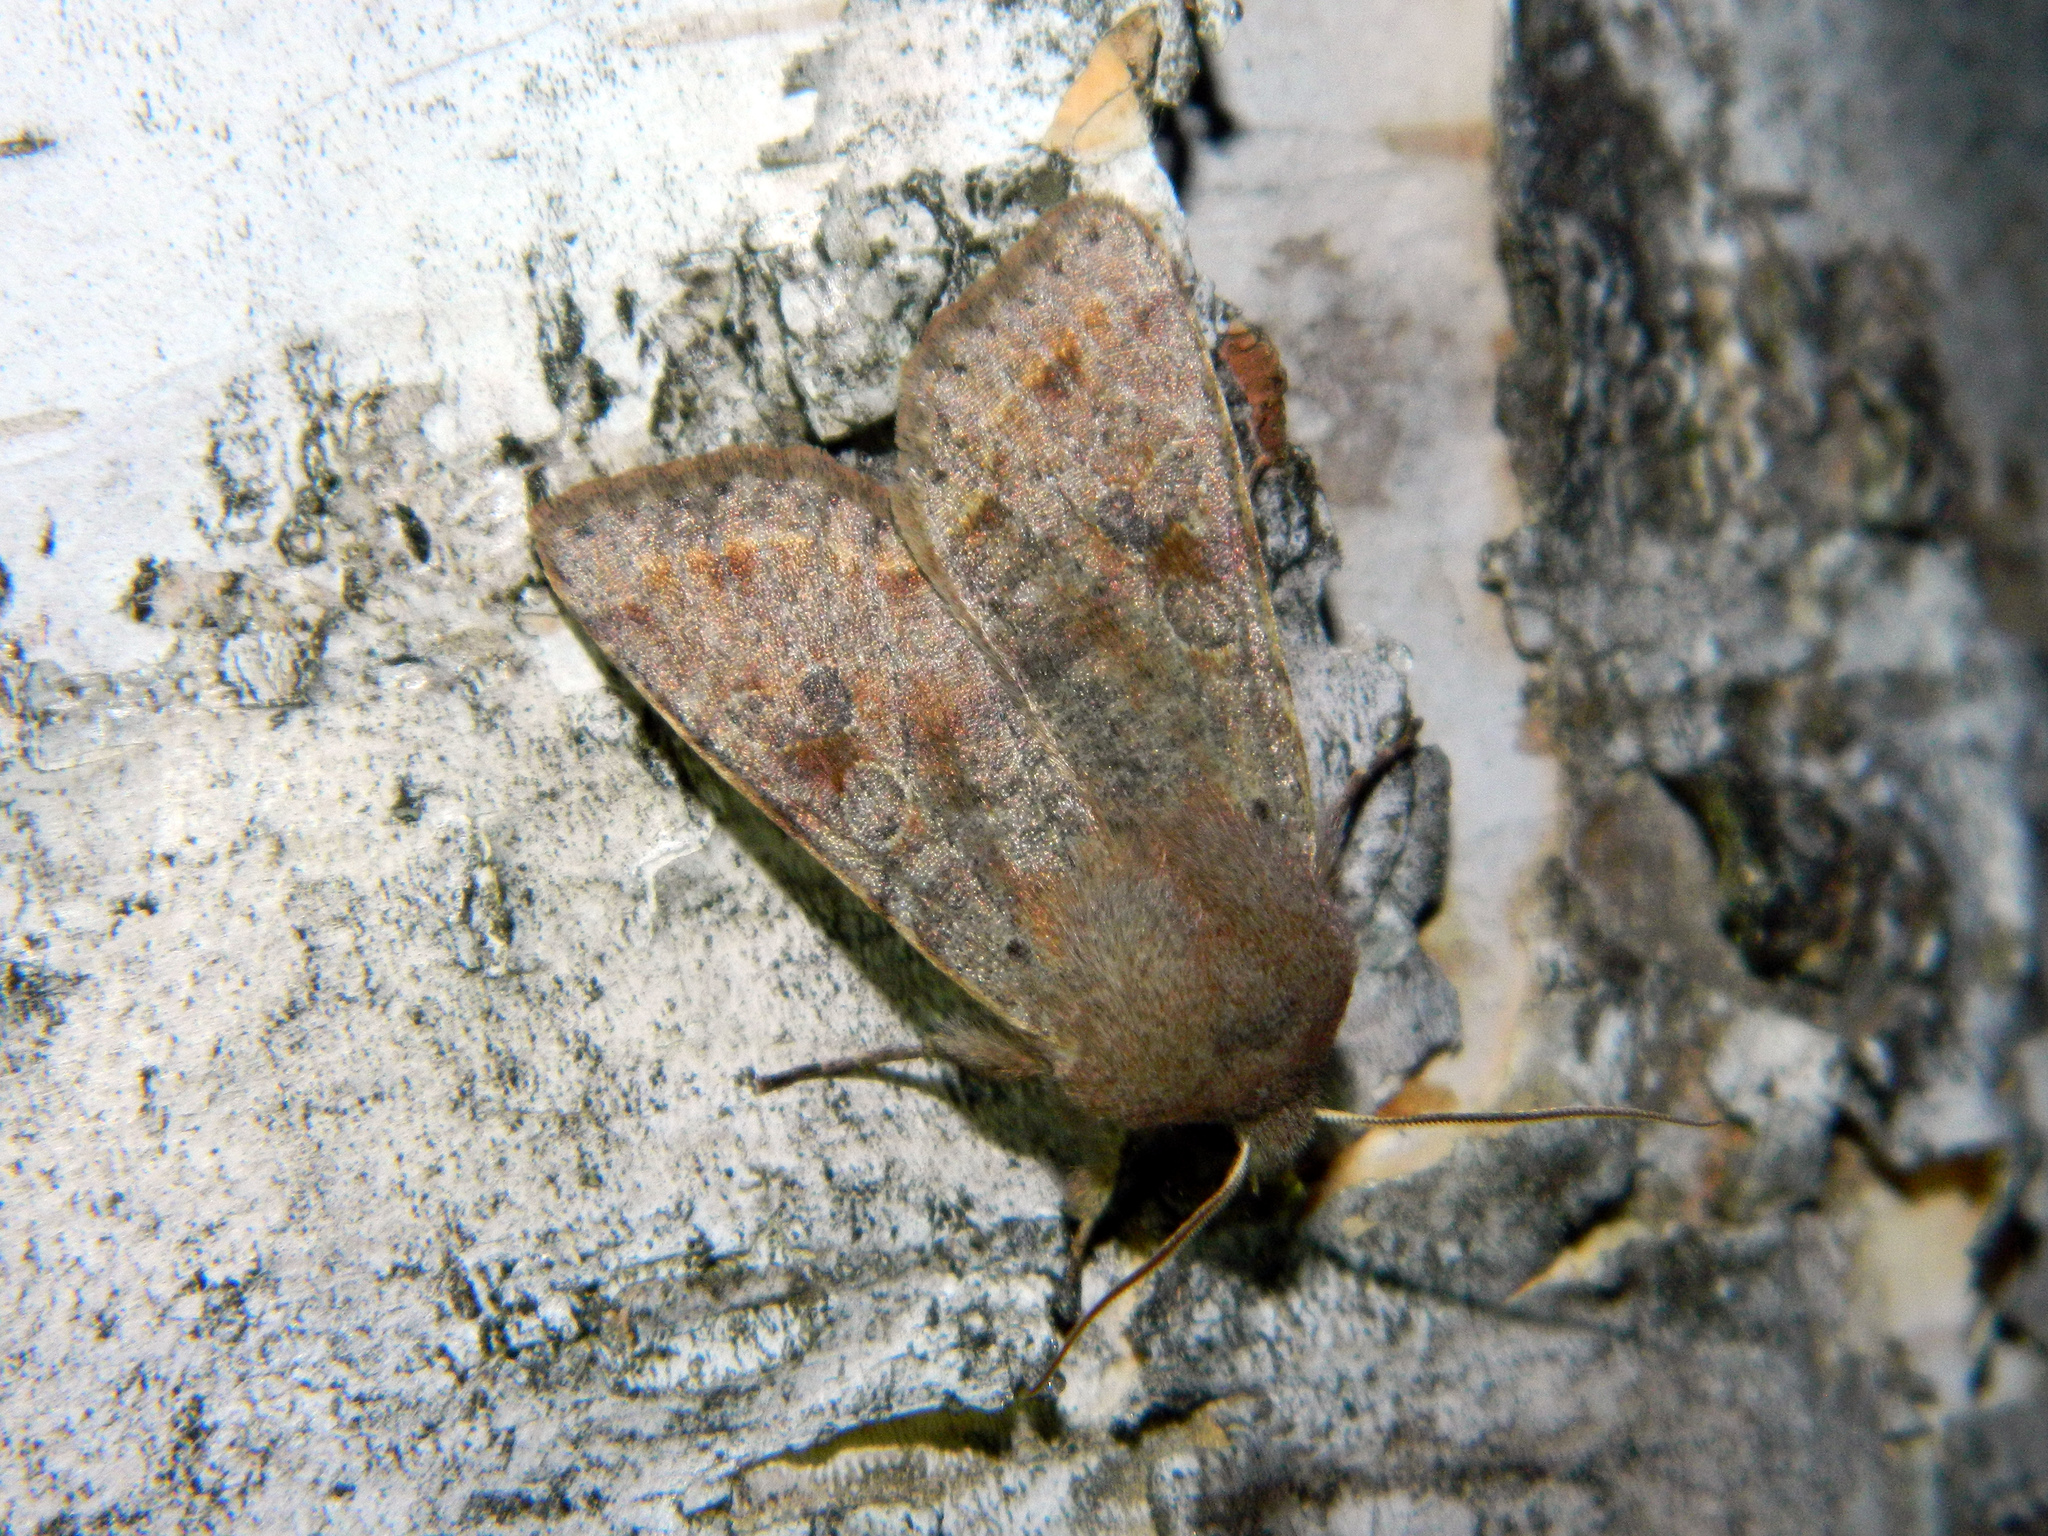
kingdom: Animalia
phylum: Arthropoda
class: Insecta
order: Lepidoptera
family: Noctuidae
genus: Orthosia
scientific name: Orthosia hibisci
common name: Green fruitworm
